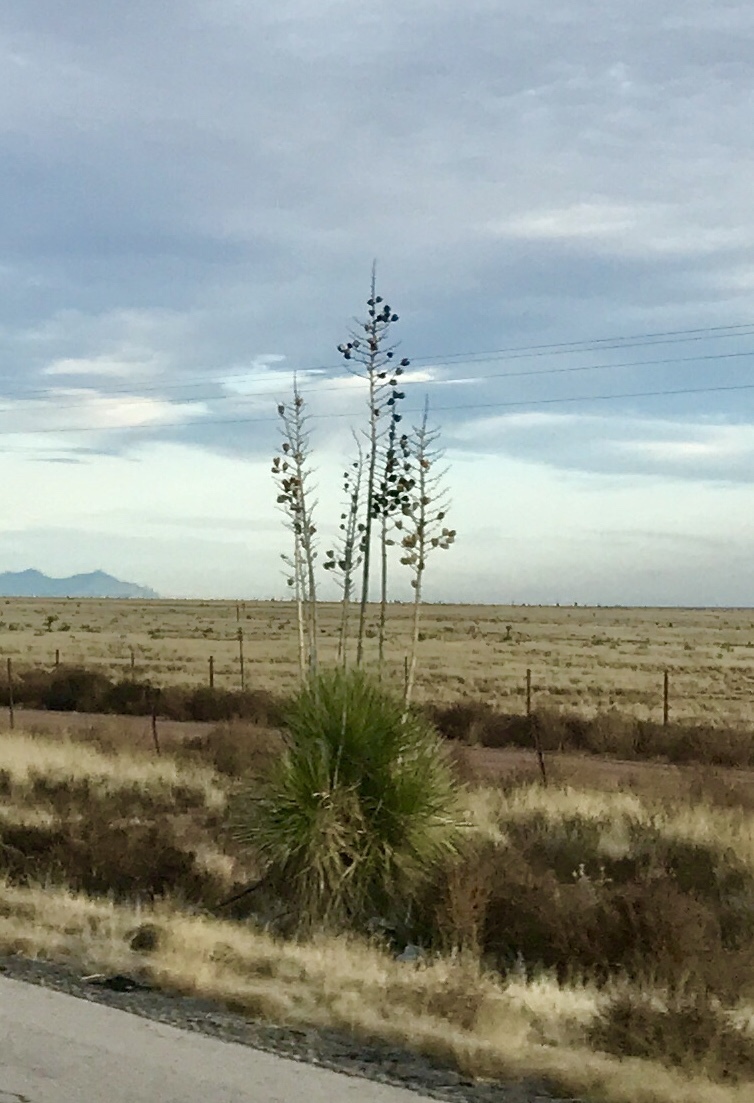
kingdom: Plantae
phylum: Tracheophyta
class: Liliopsida
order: Asparagales
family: Asparagaceae
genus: Yucca
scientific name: Yucca elata
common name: Palmella
